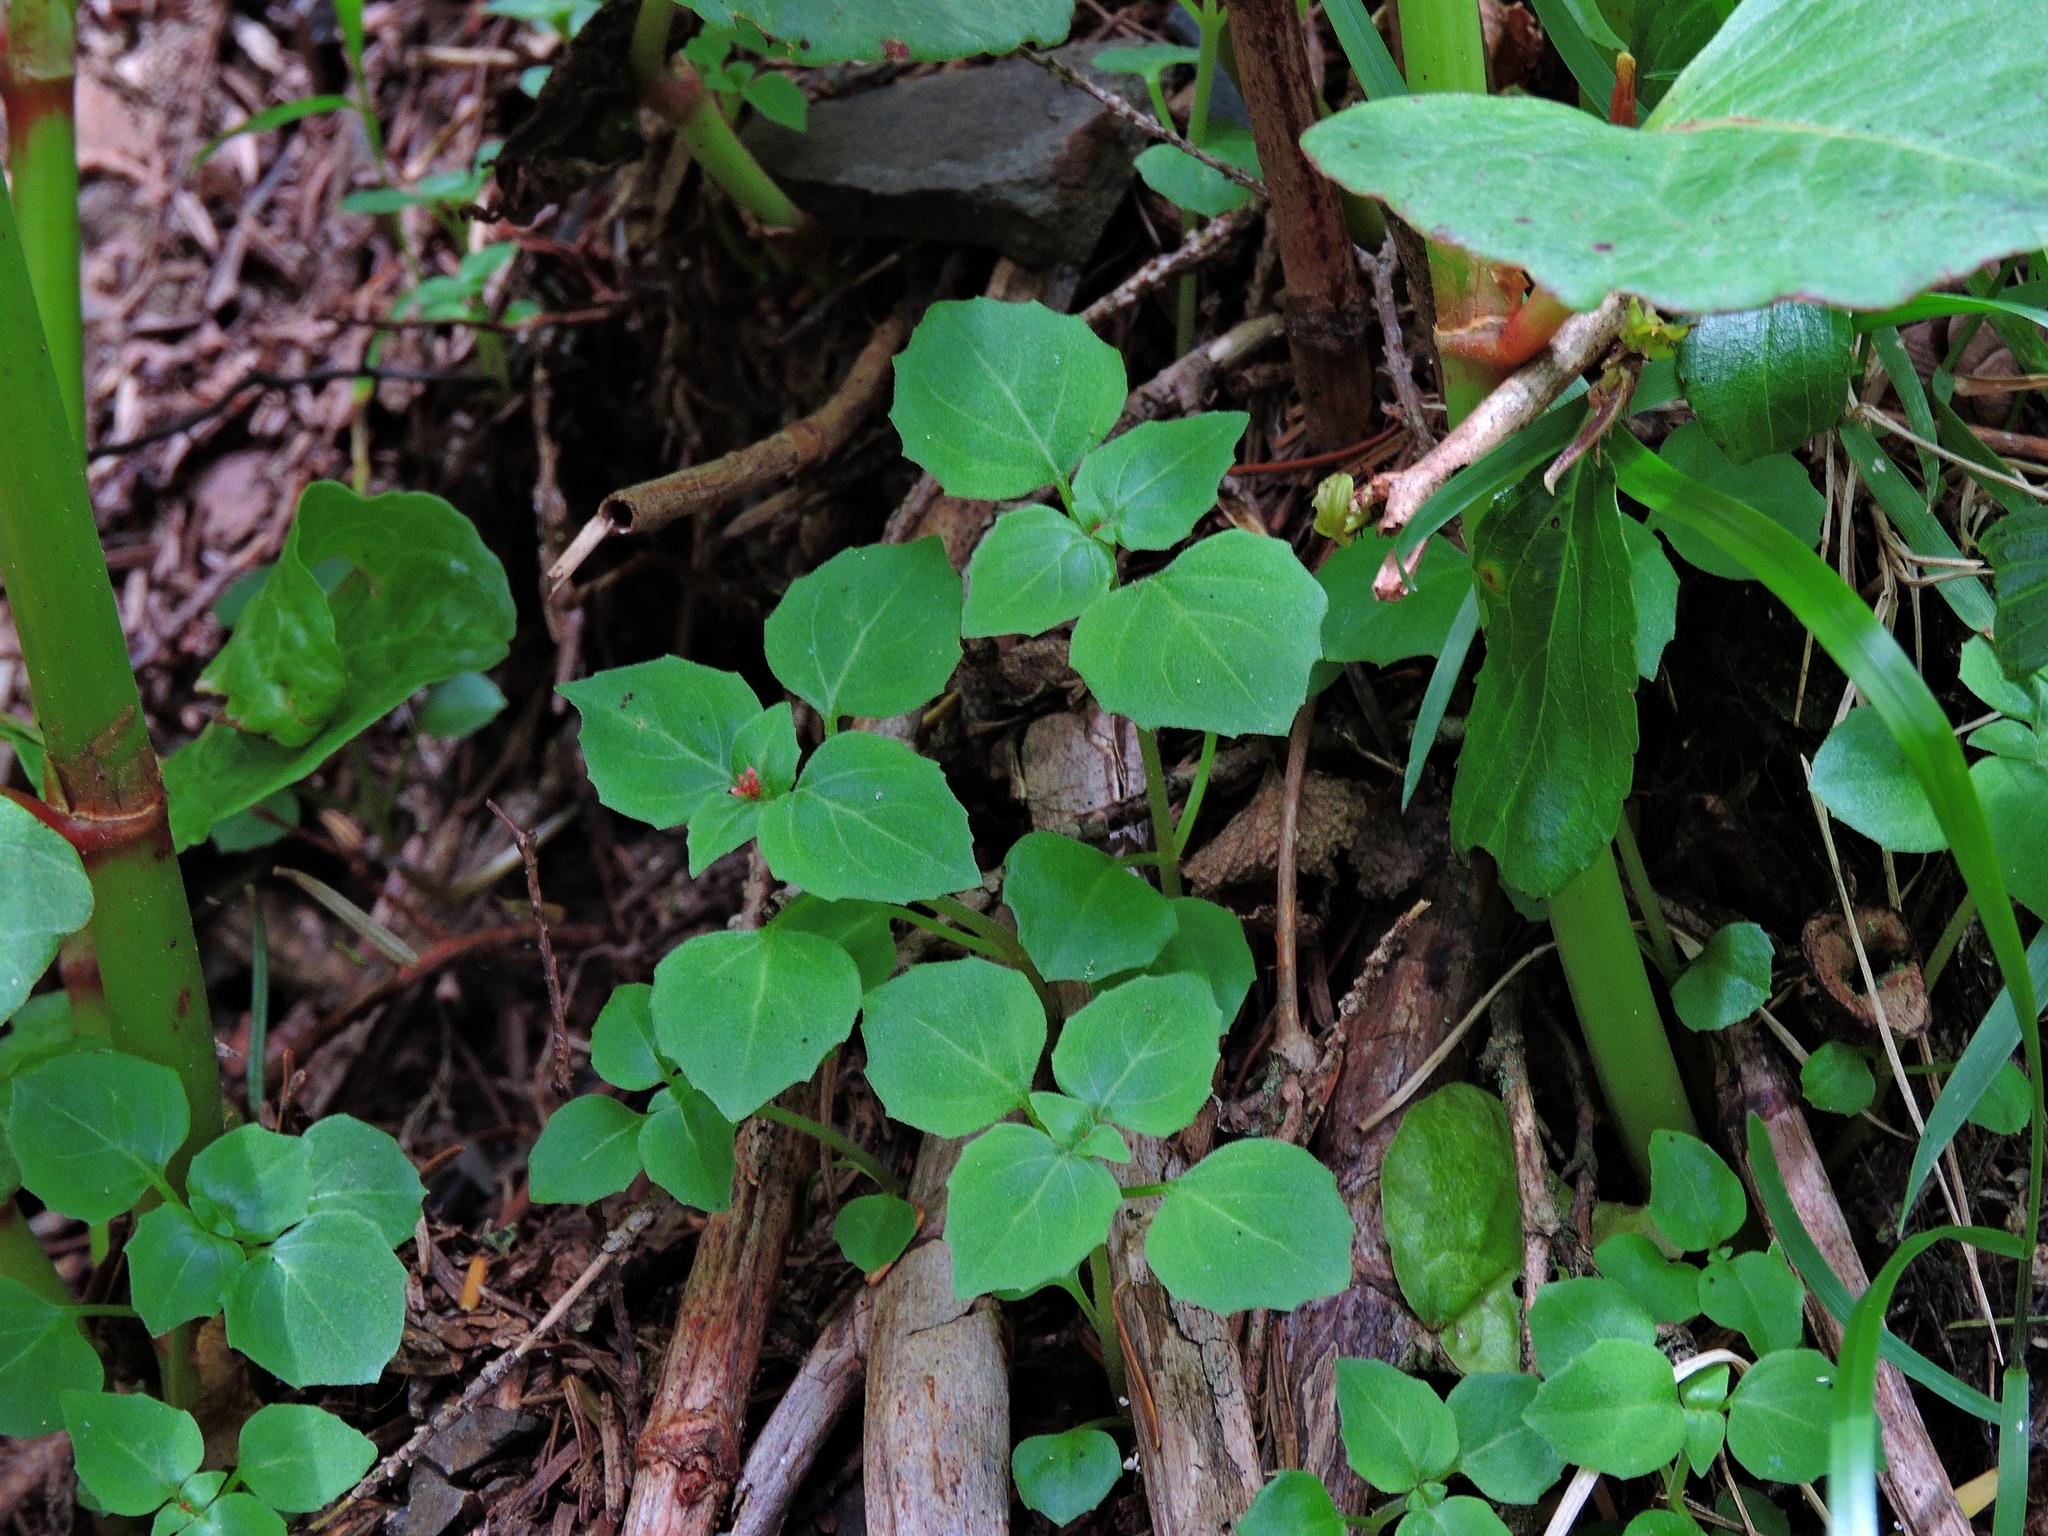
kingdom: Plantae
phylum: Tracheophyta
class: Magnoliopsida
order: Myrtales
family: Onagraceae
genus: Circaea
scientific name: Circaea alpina
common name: Alpine enchanter's-nightshade
